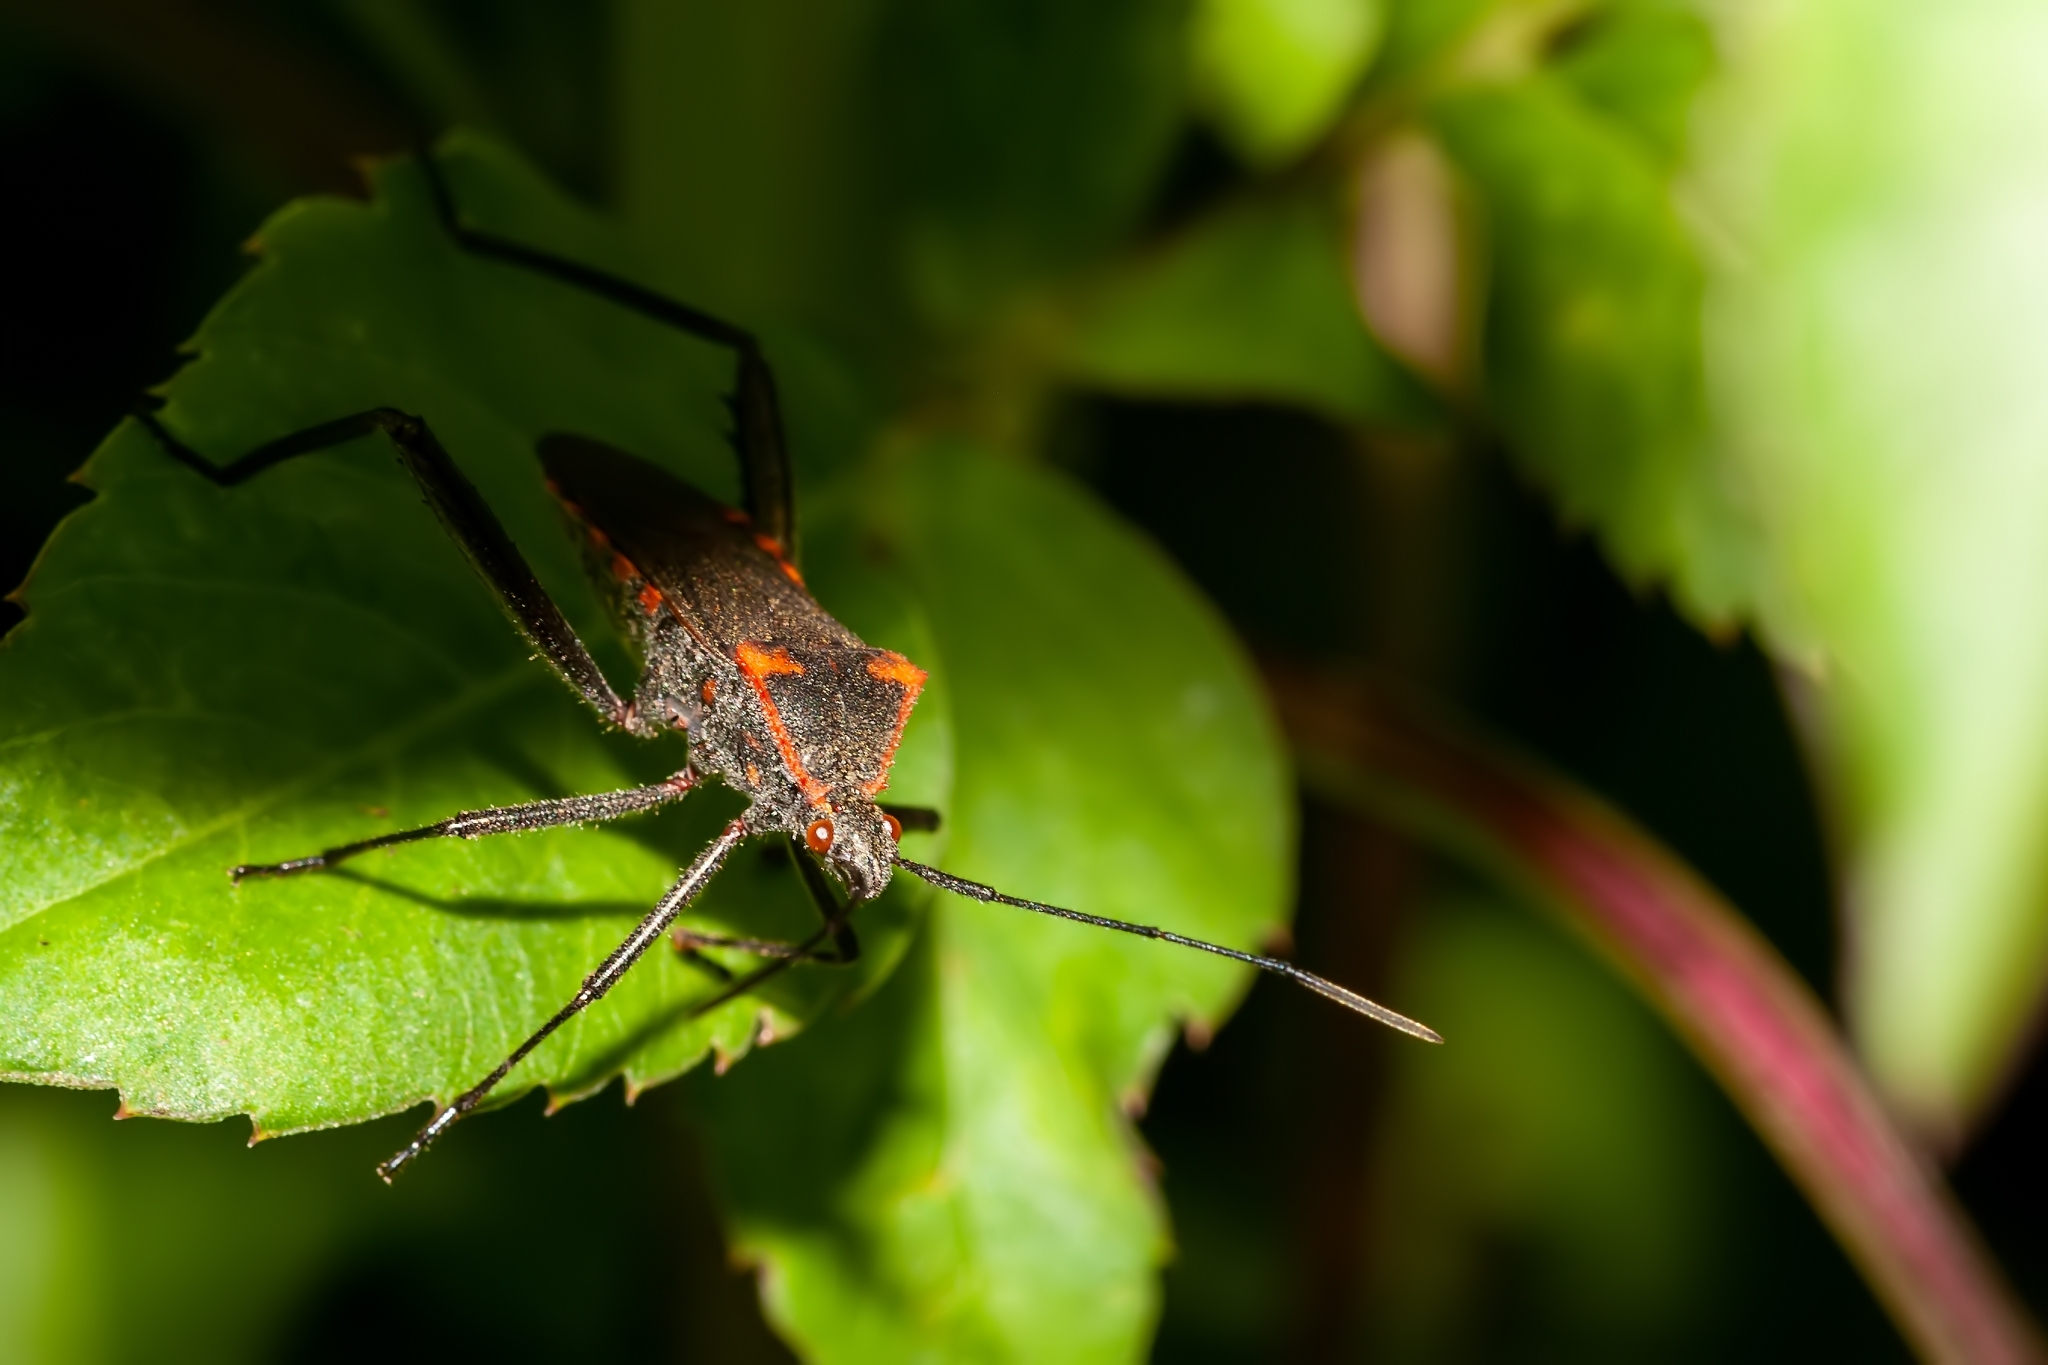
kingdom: Animalia
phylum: Arthropoda
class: Insecta
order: Hemiptera
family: Coreidae
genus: Phthiacnemia
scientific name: Phthiacnemia picta
